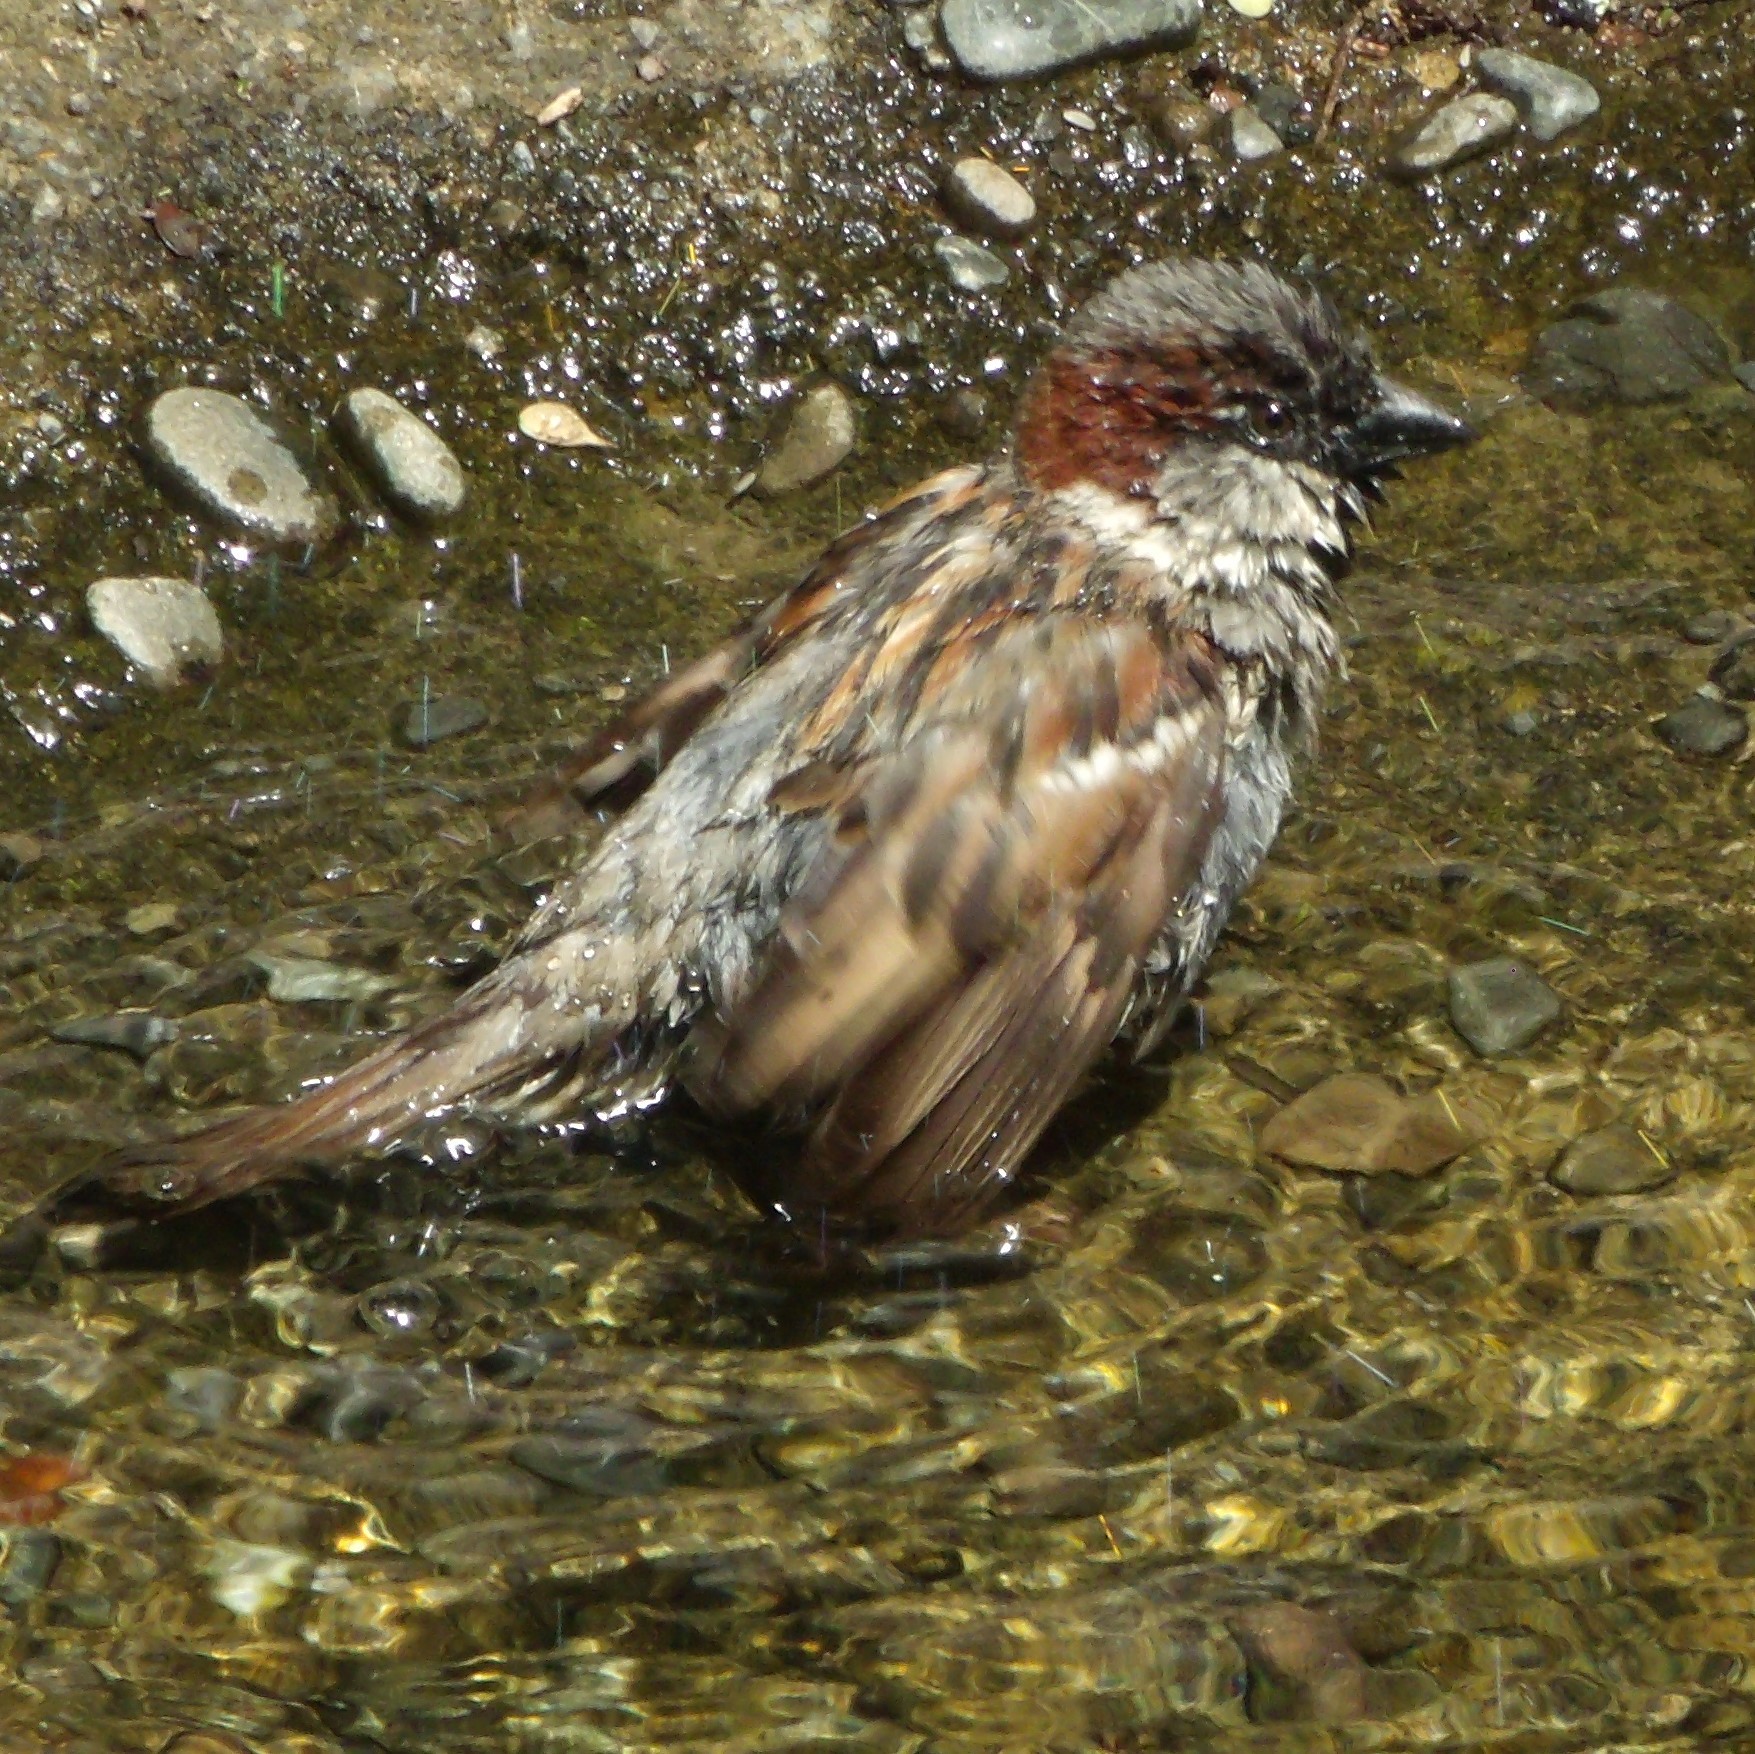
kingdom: Animalia
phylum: Chordata
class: Aves
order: Passeriformes
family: Passeridae
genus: Passer
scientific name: Passer domesticus
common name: House sparrow
